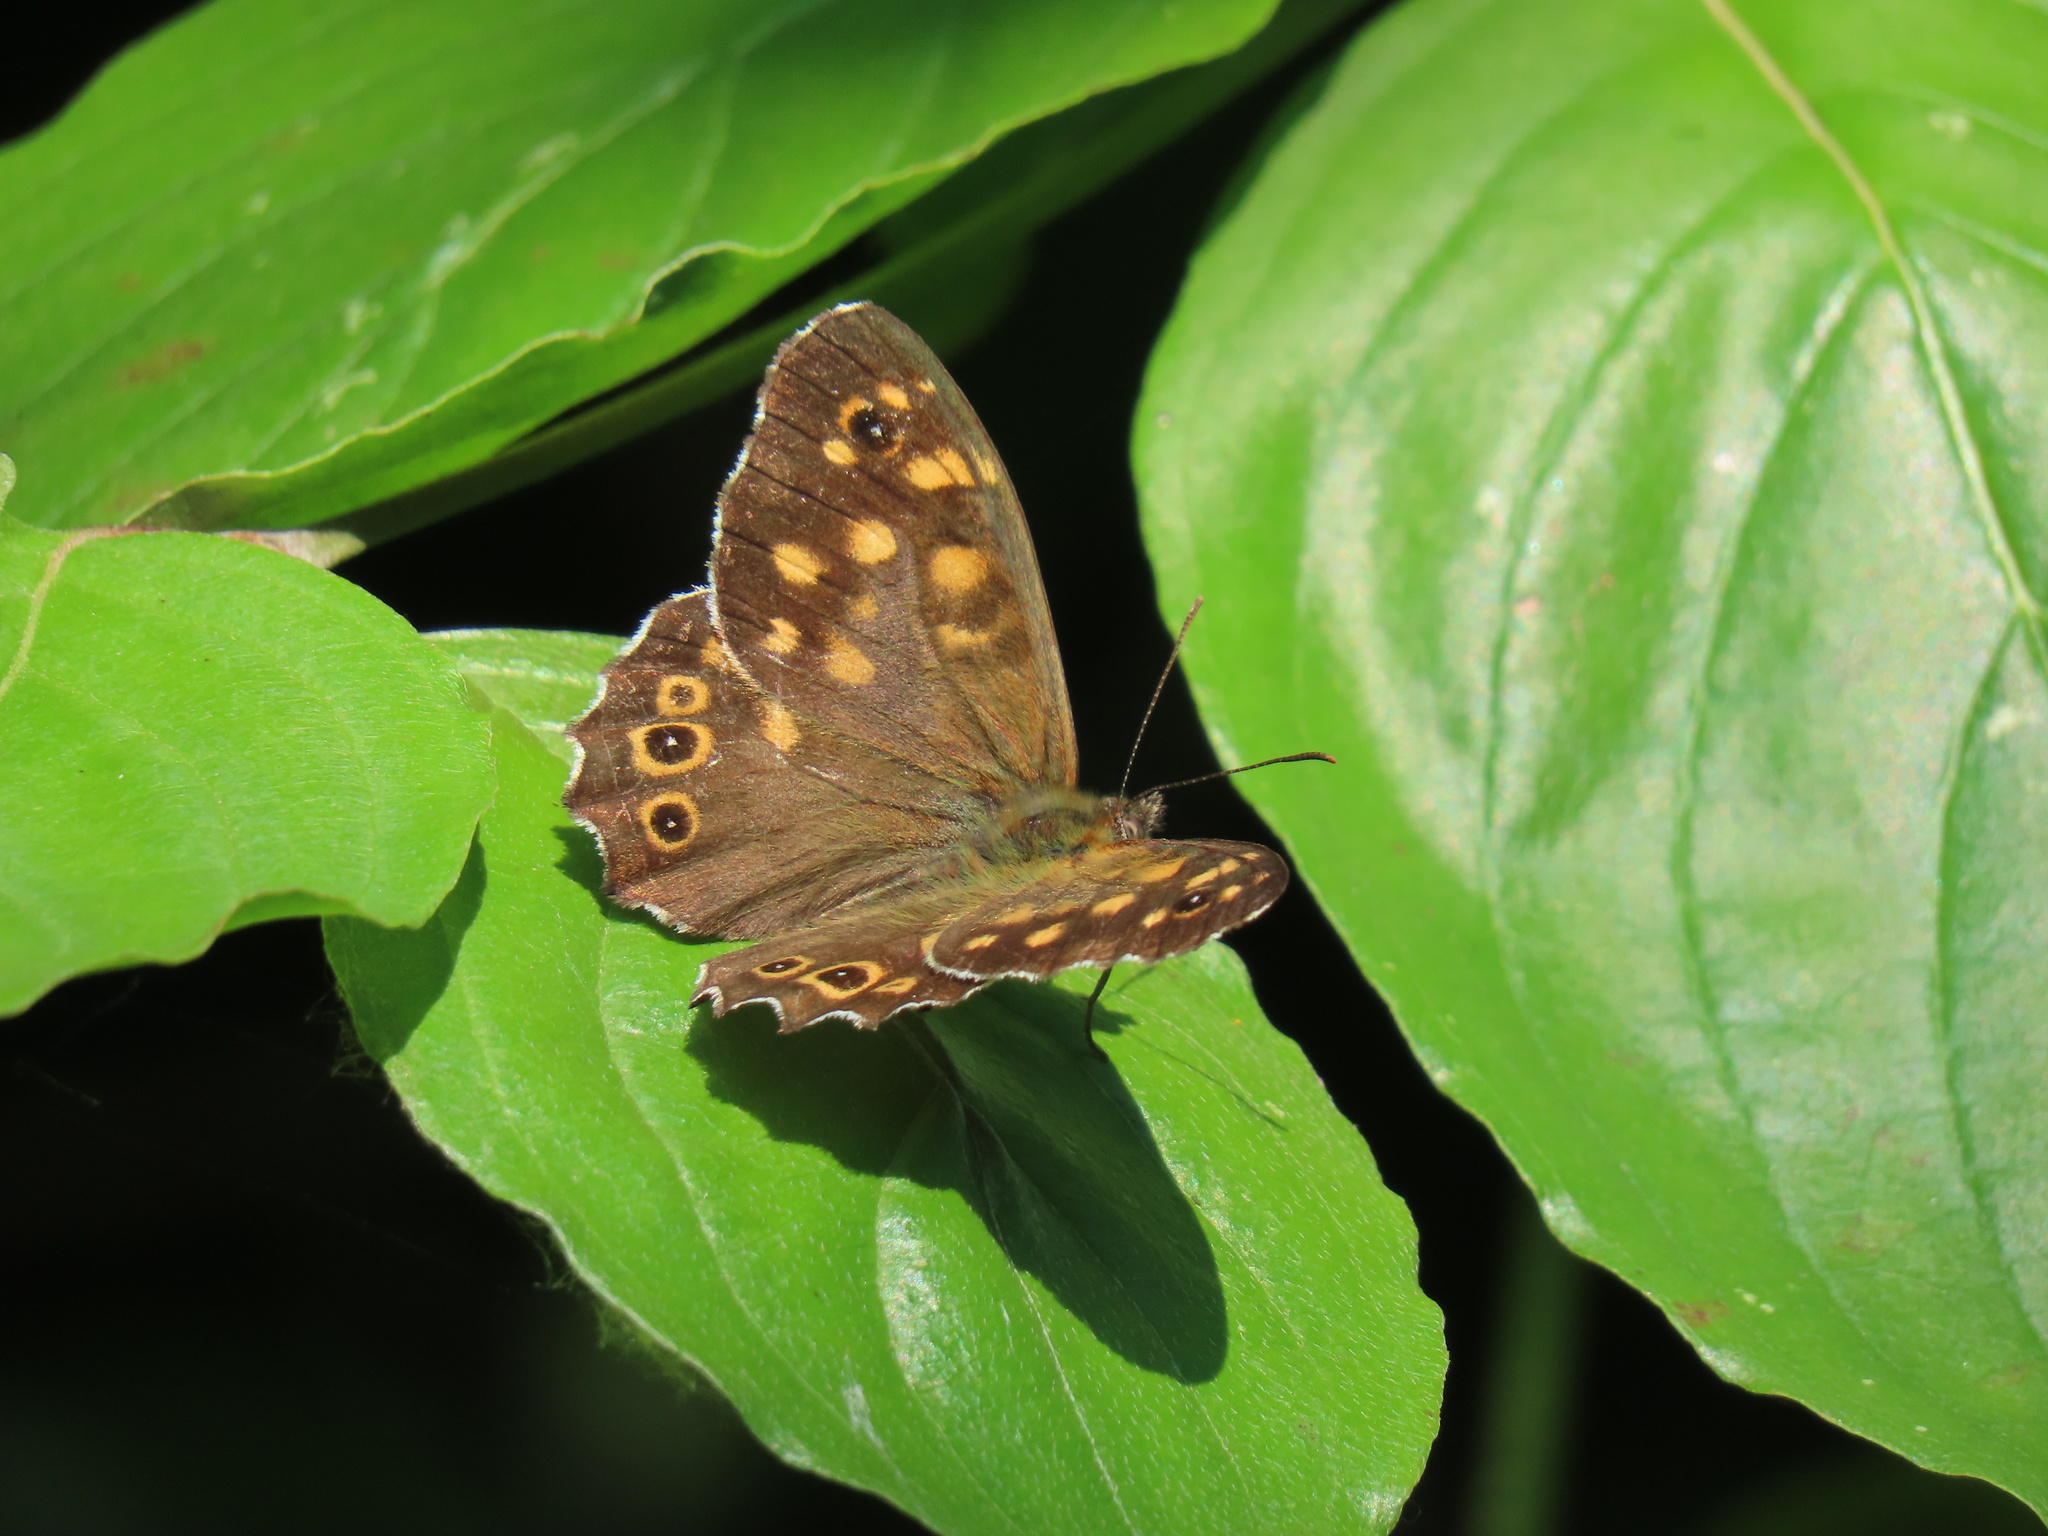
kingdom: Animalia
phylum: Arthropoda
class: Insecta
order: Lepidoptera
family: Nymphalidae
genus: Pararge
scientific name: Pararge aegeria
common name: Speckled wood
